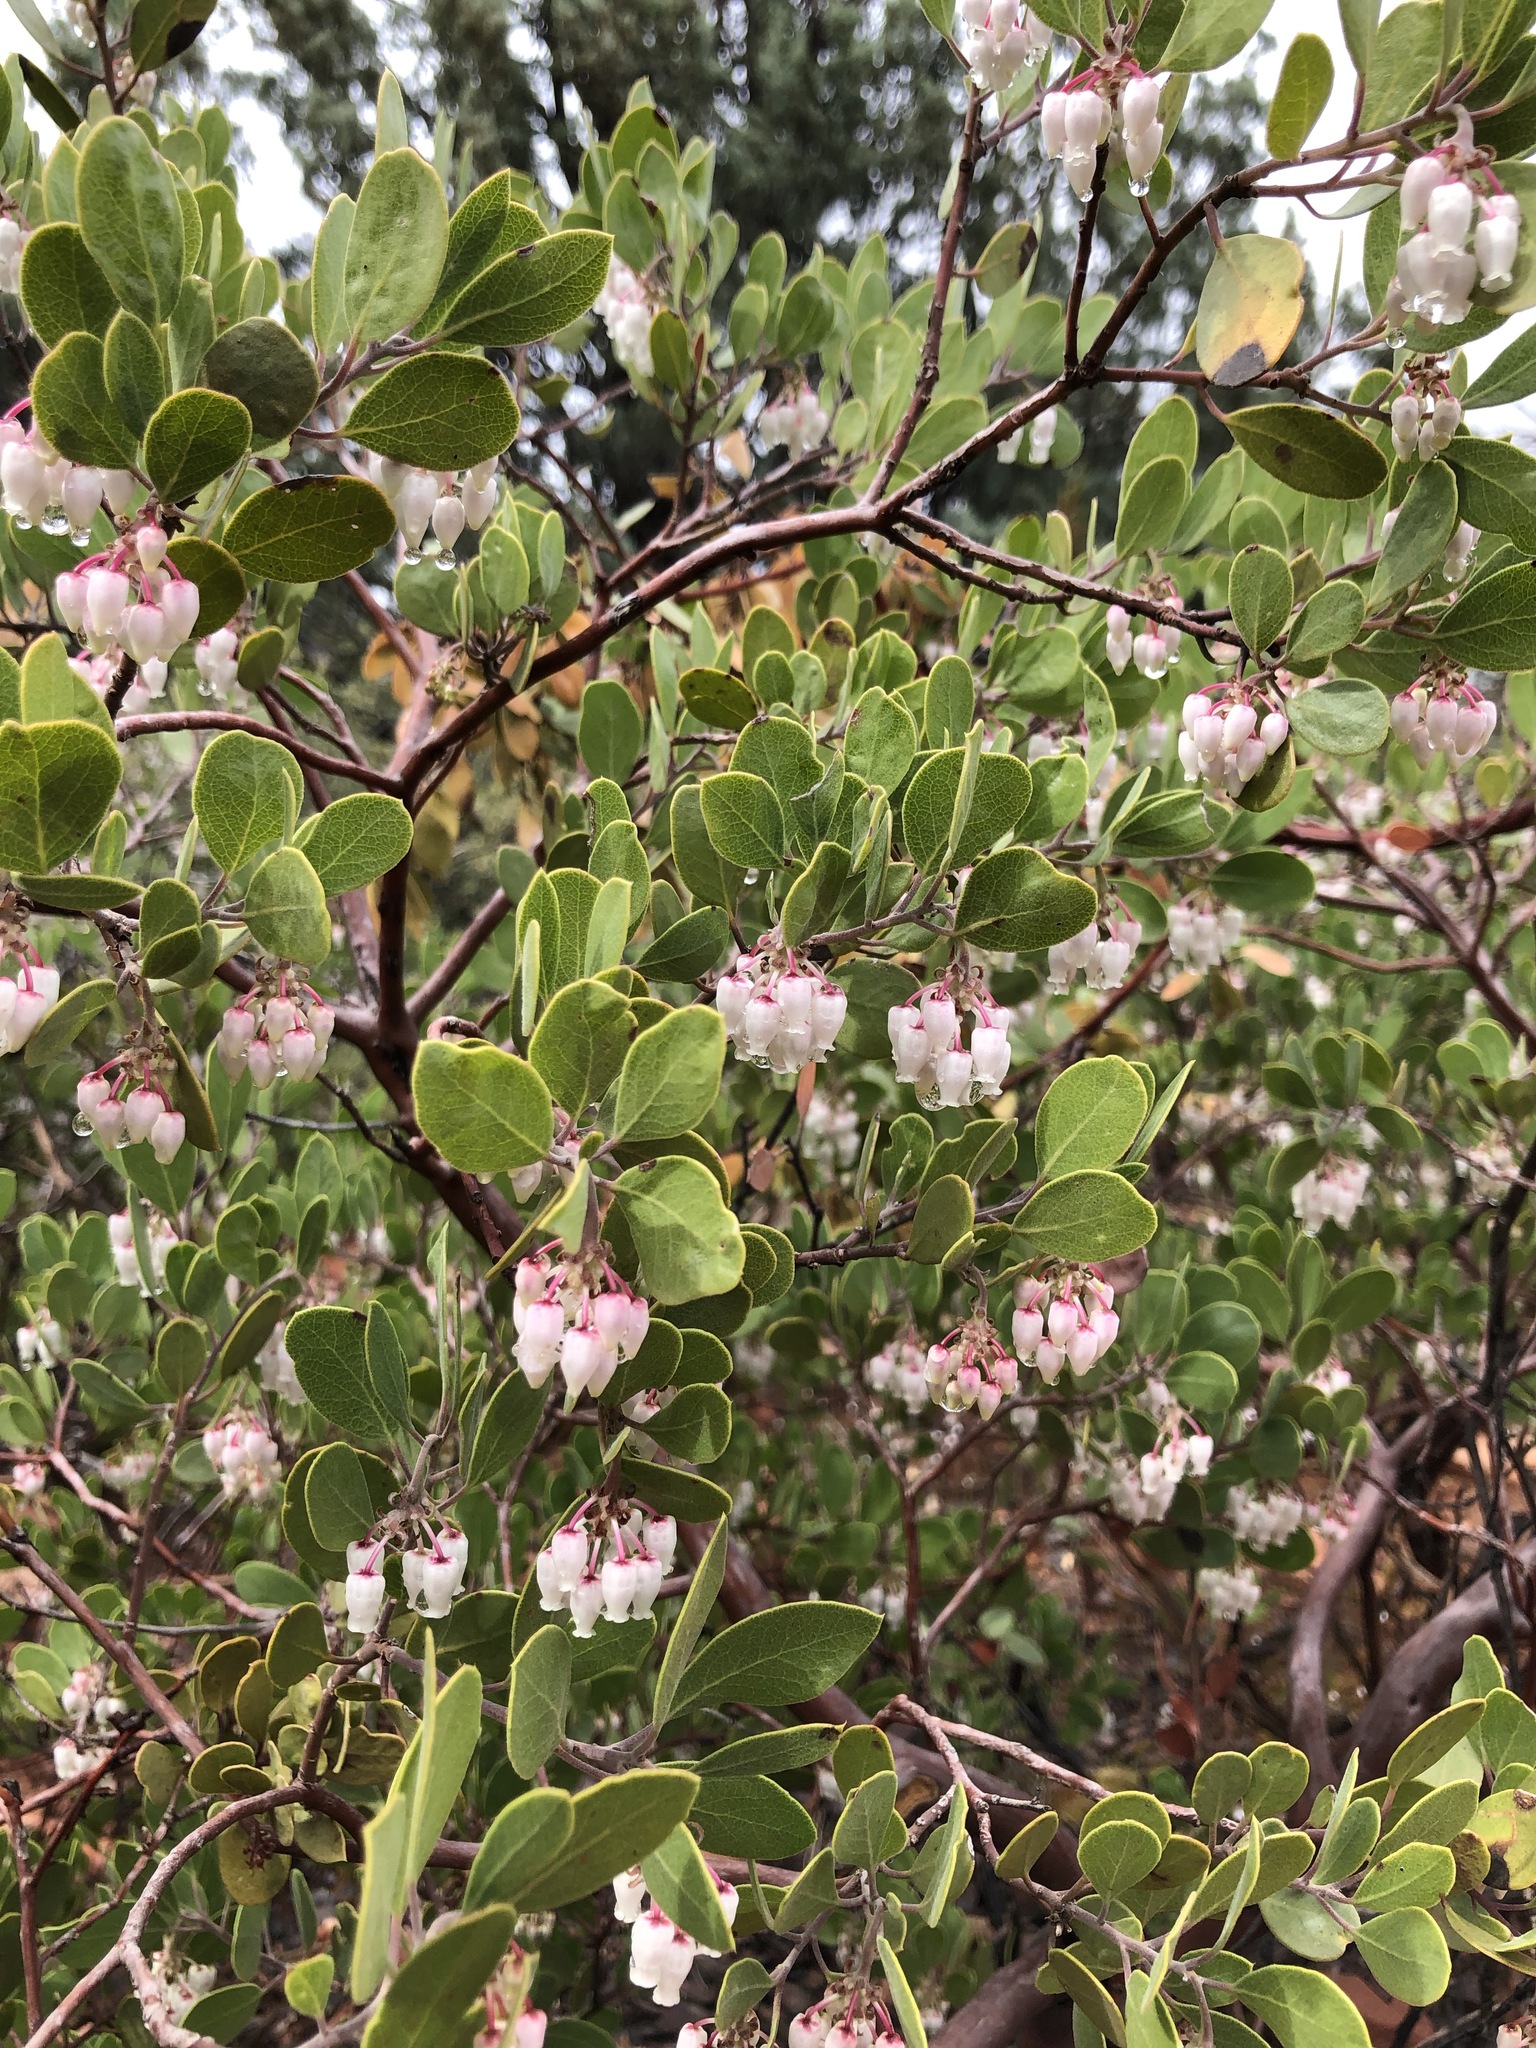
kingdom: Plantae
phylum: Tracheophyta
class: Magnoliopsida
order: Ericales
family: Ericaceae
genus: Arctostaphylos
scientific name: Arctostaphylos pungens
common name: Mexican manzanita
